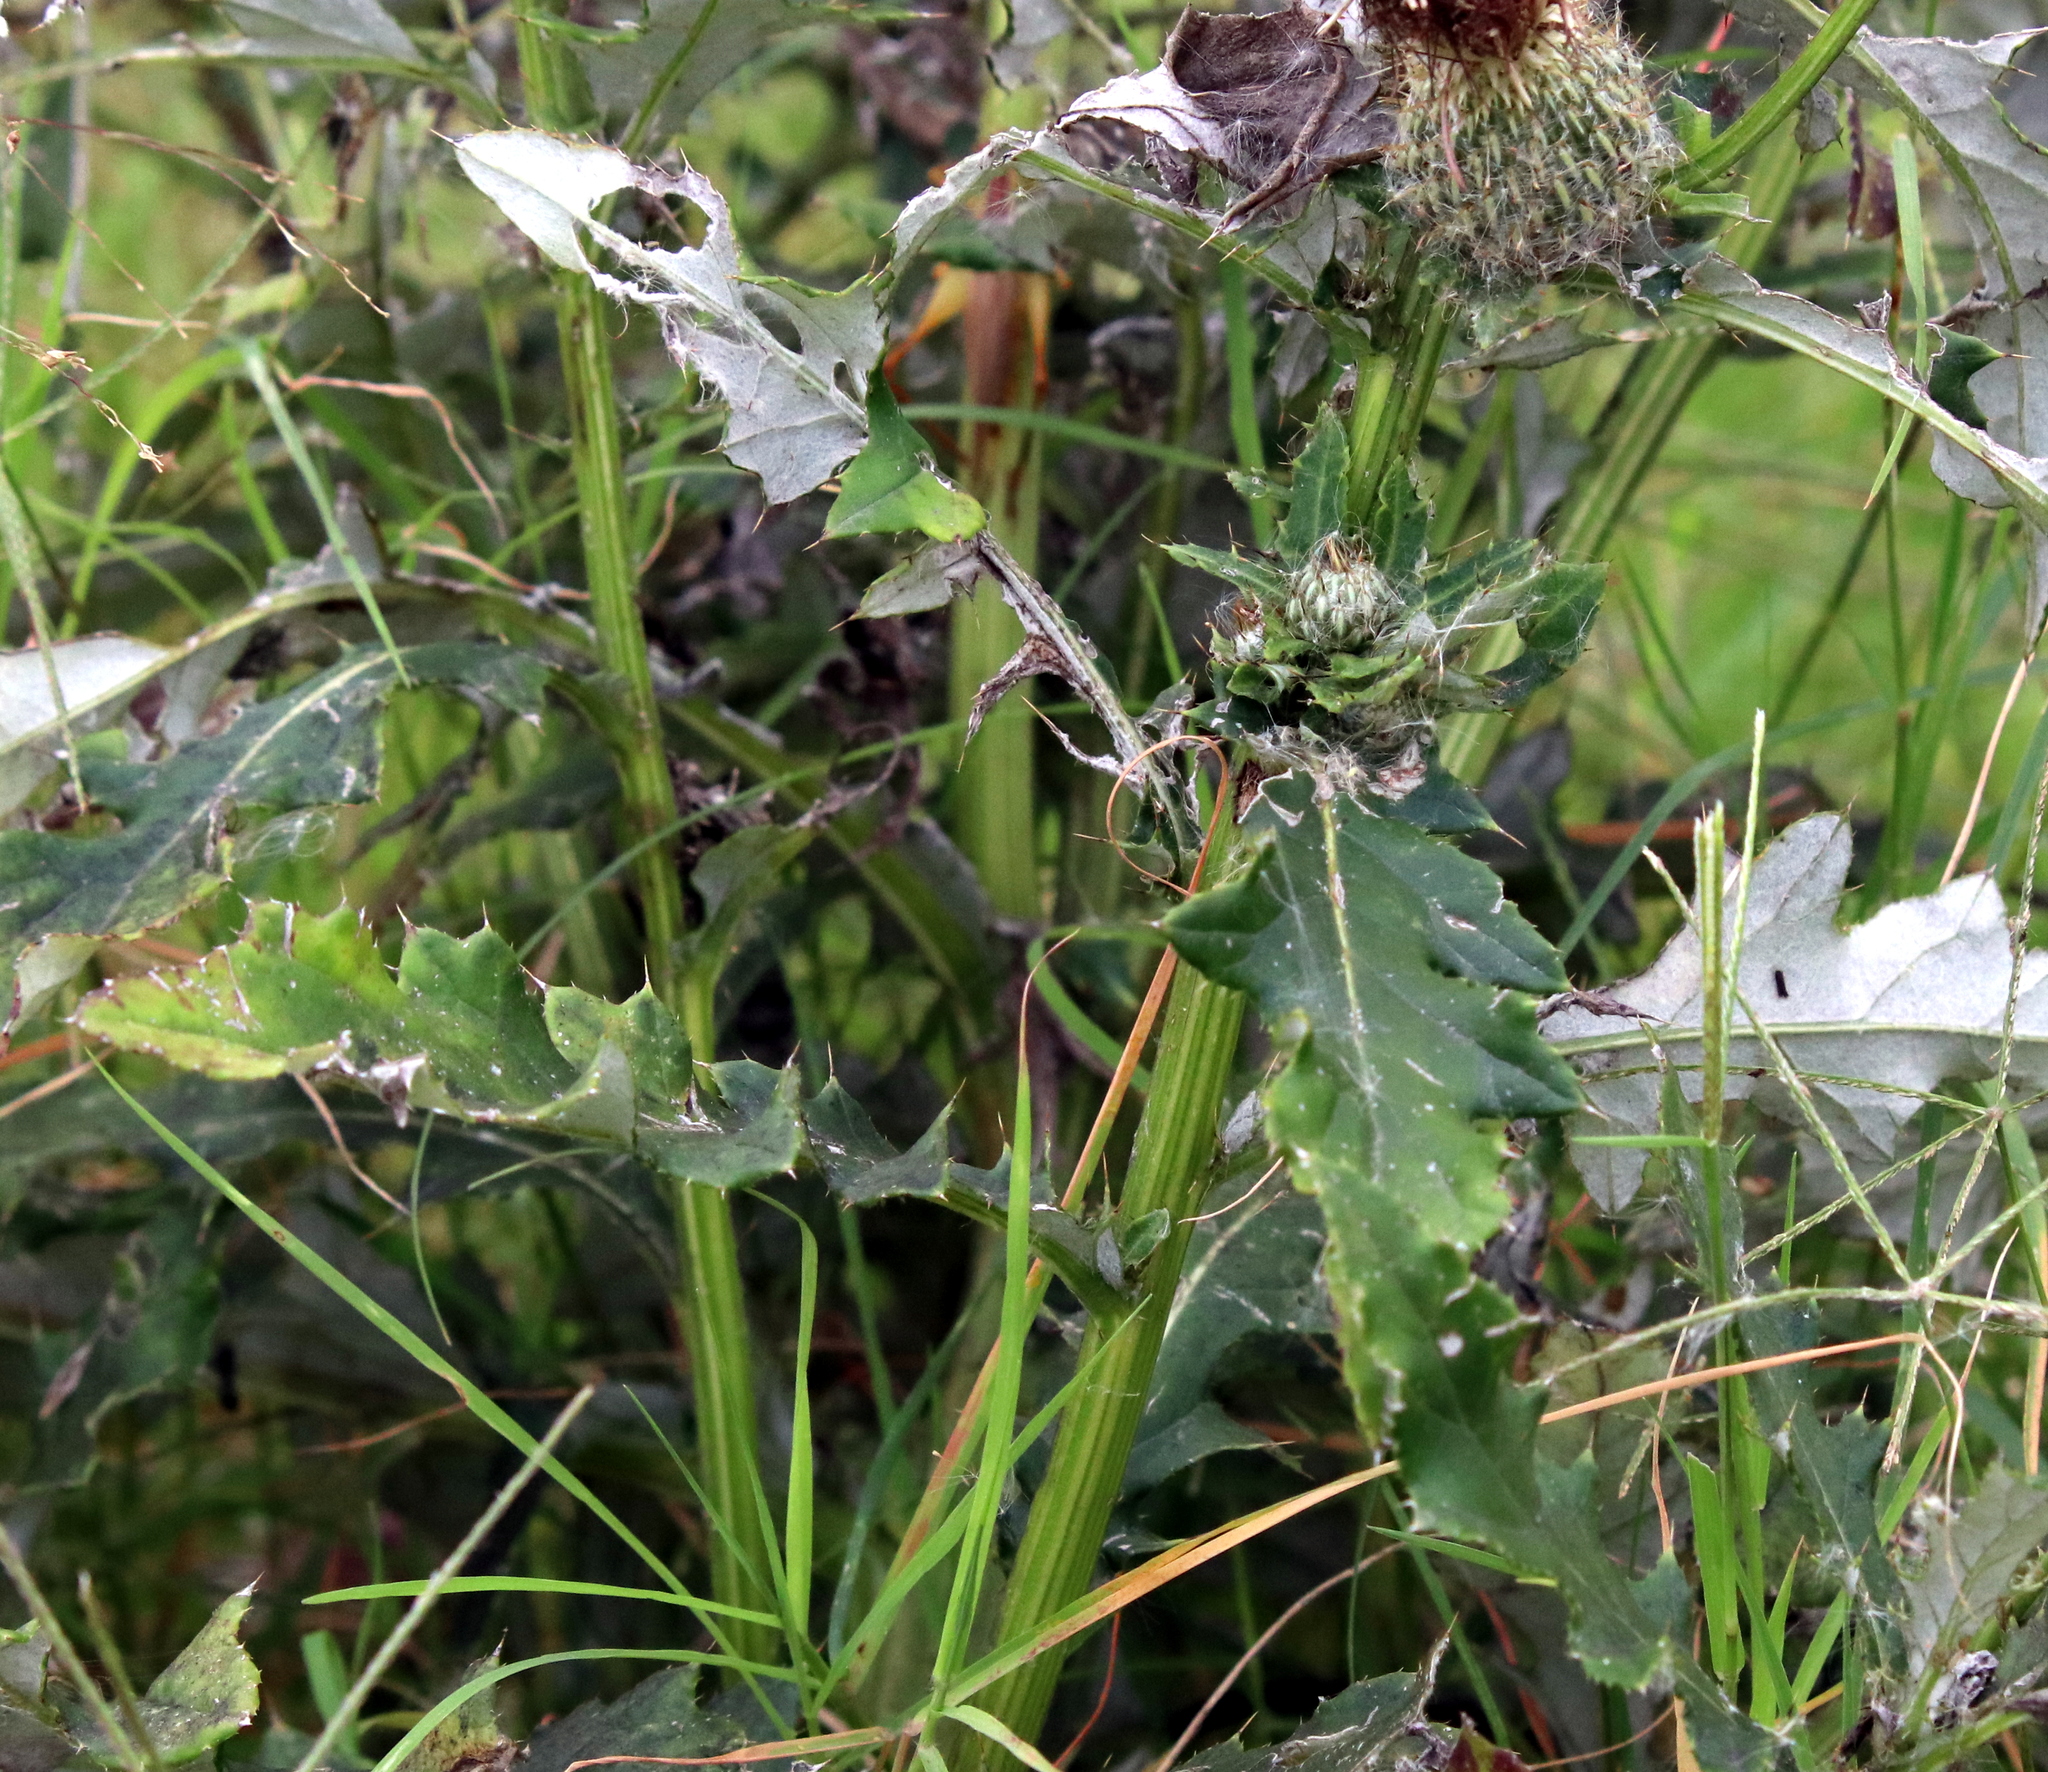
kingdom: Plantae
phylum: Tracheophyta
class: Magnoliopsida
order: Asterales
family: Asteraceae
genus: Cirsium
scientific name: Cirsium altissimum
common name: Roadside thistle
